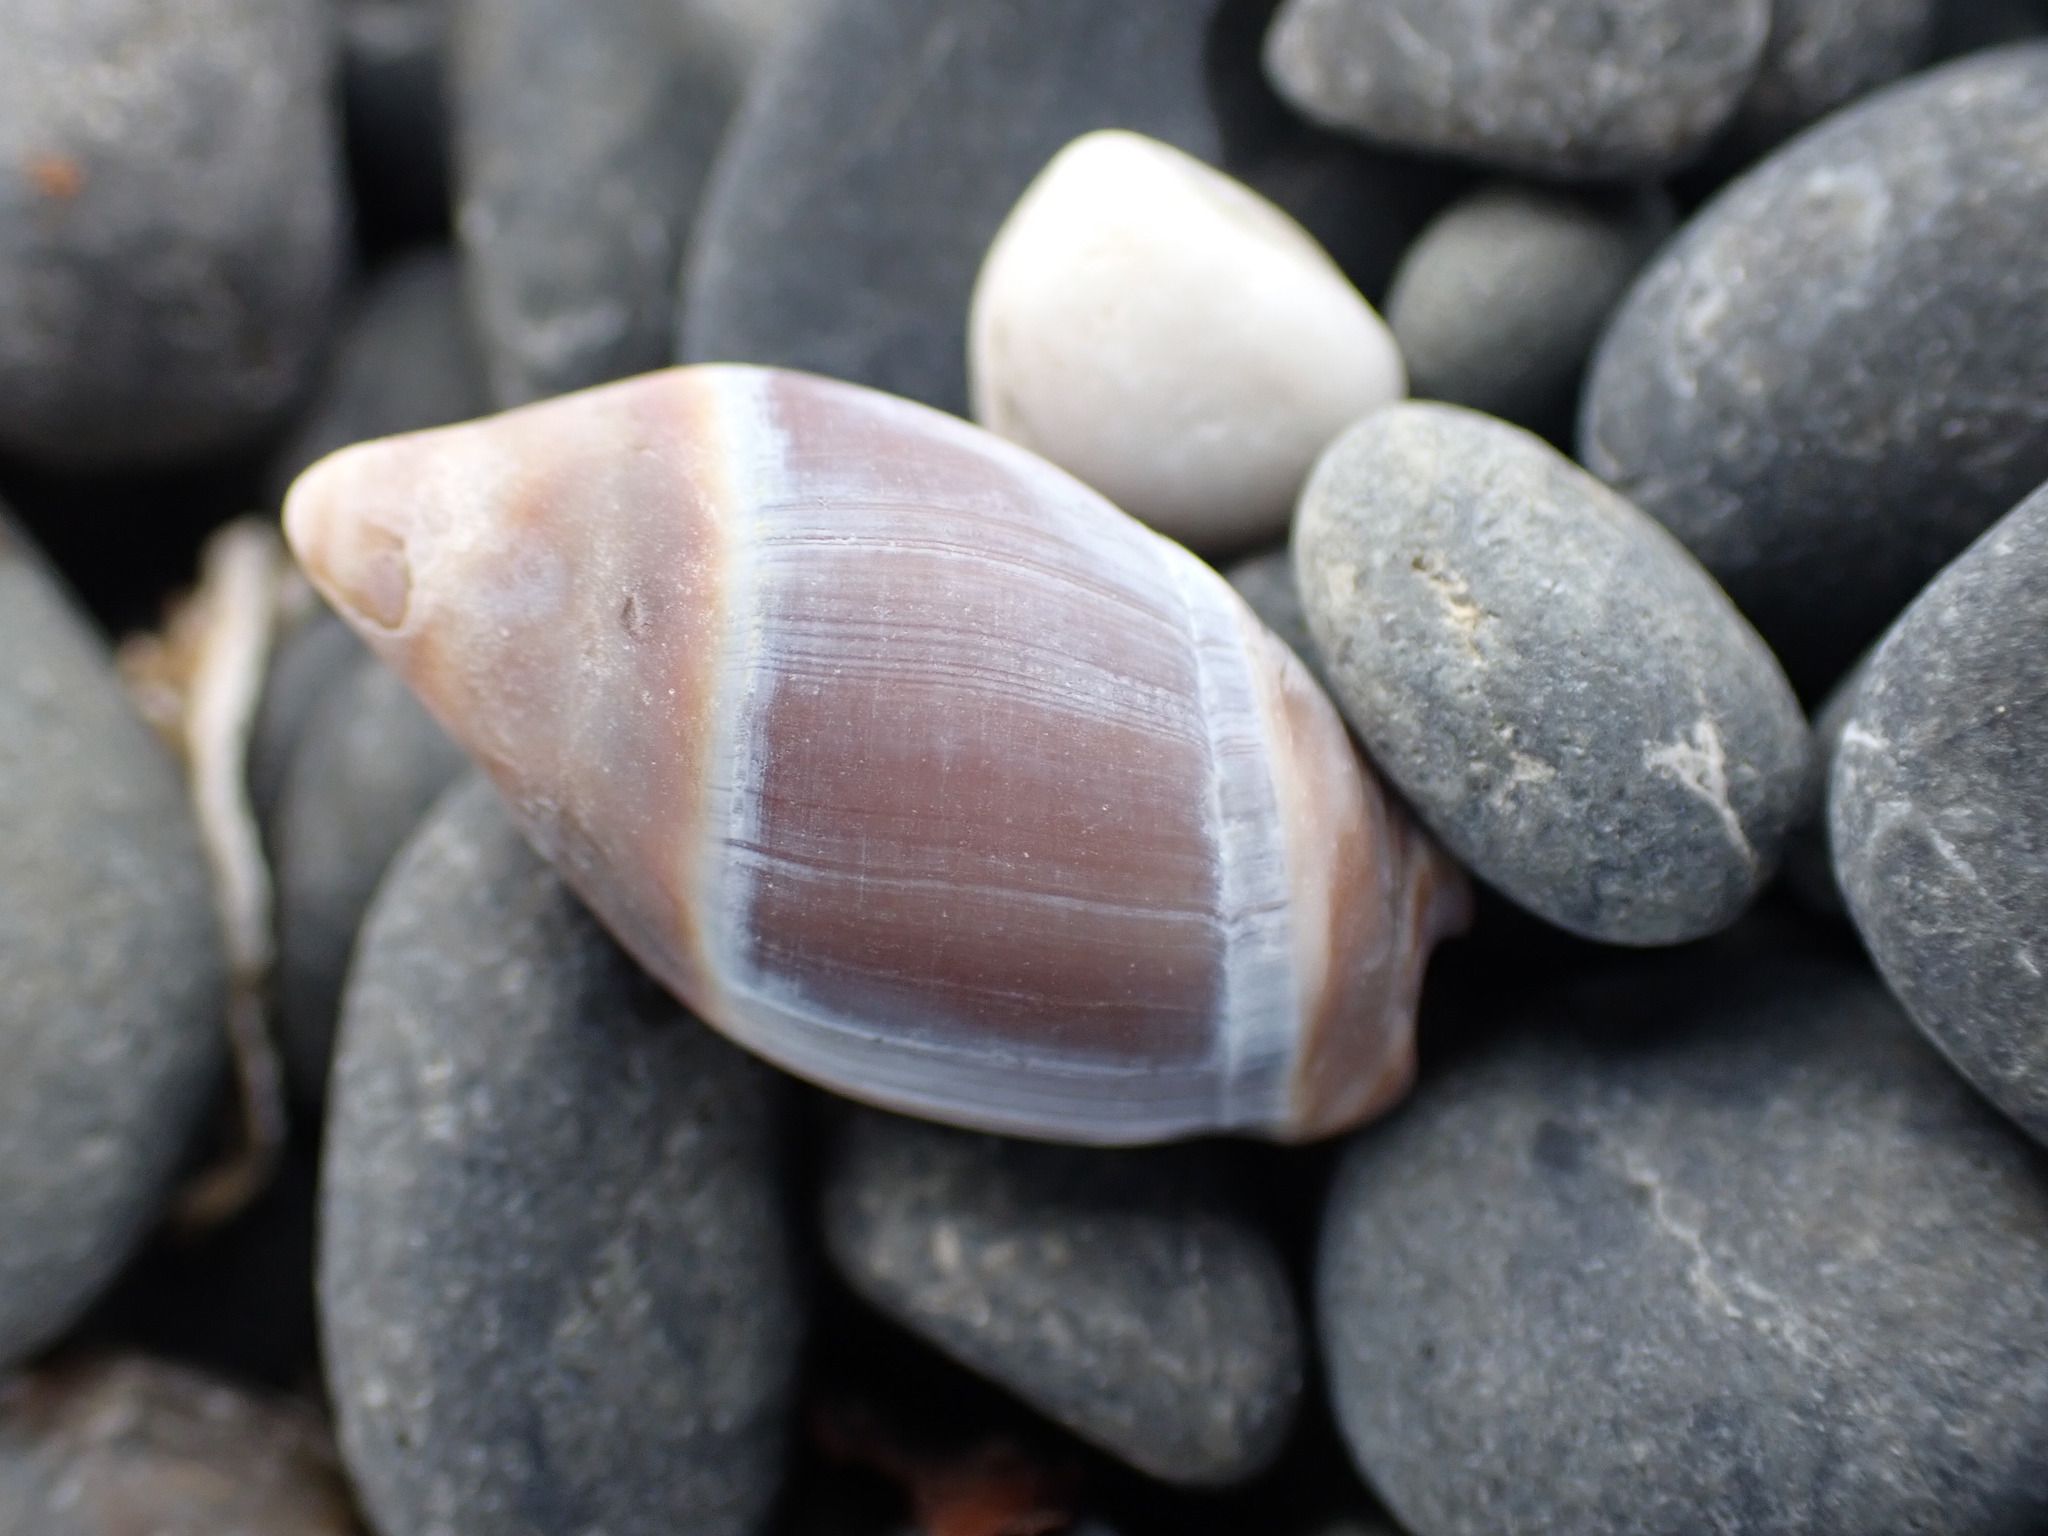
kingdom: Animalia
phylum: Mollusca
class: Gastropoda
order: Neogastropoda
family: Ancillariidae
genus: Amalda
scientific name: Amalda australis
